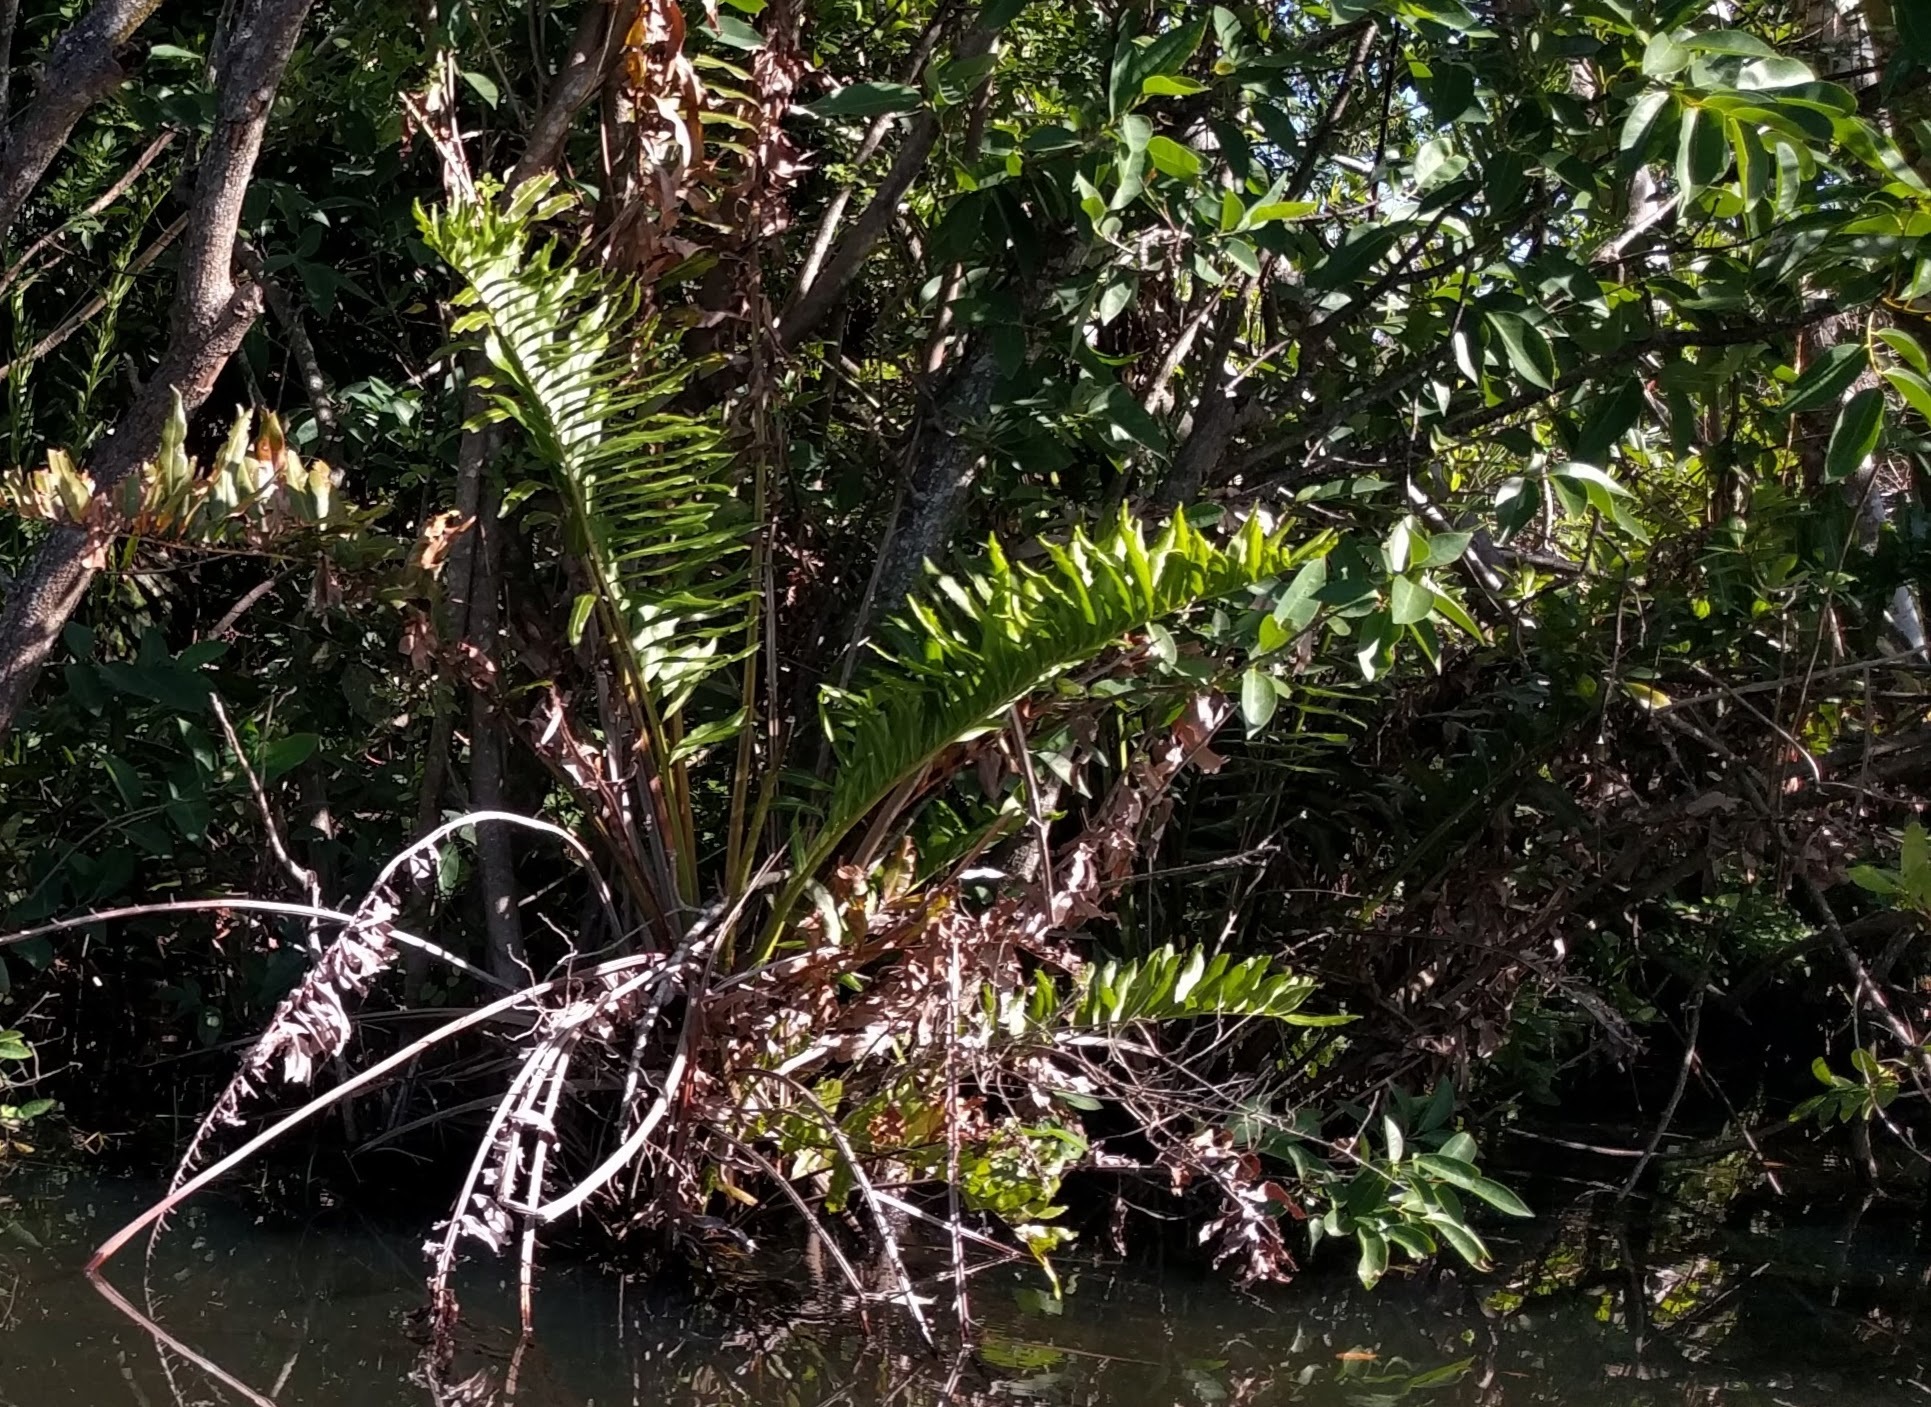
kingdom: Plantae
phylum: Tracheophyta
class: Polypodiopsida
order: Polypodiales
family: Pteridaceae
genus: Acrostichum
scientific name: Acrostichum aureum
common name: Leather fern
